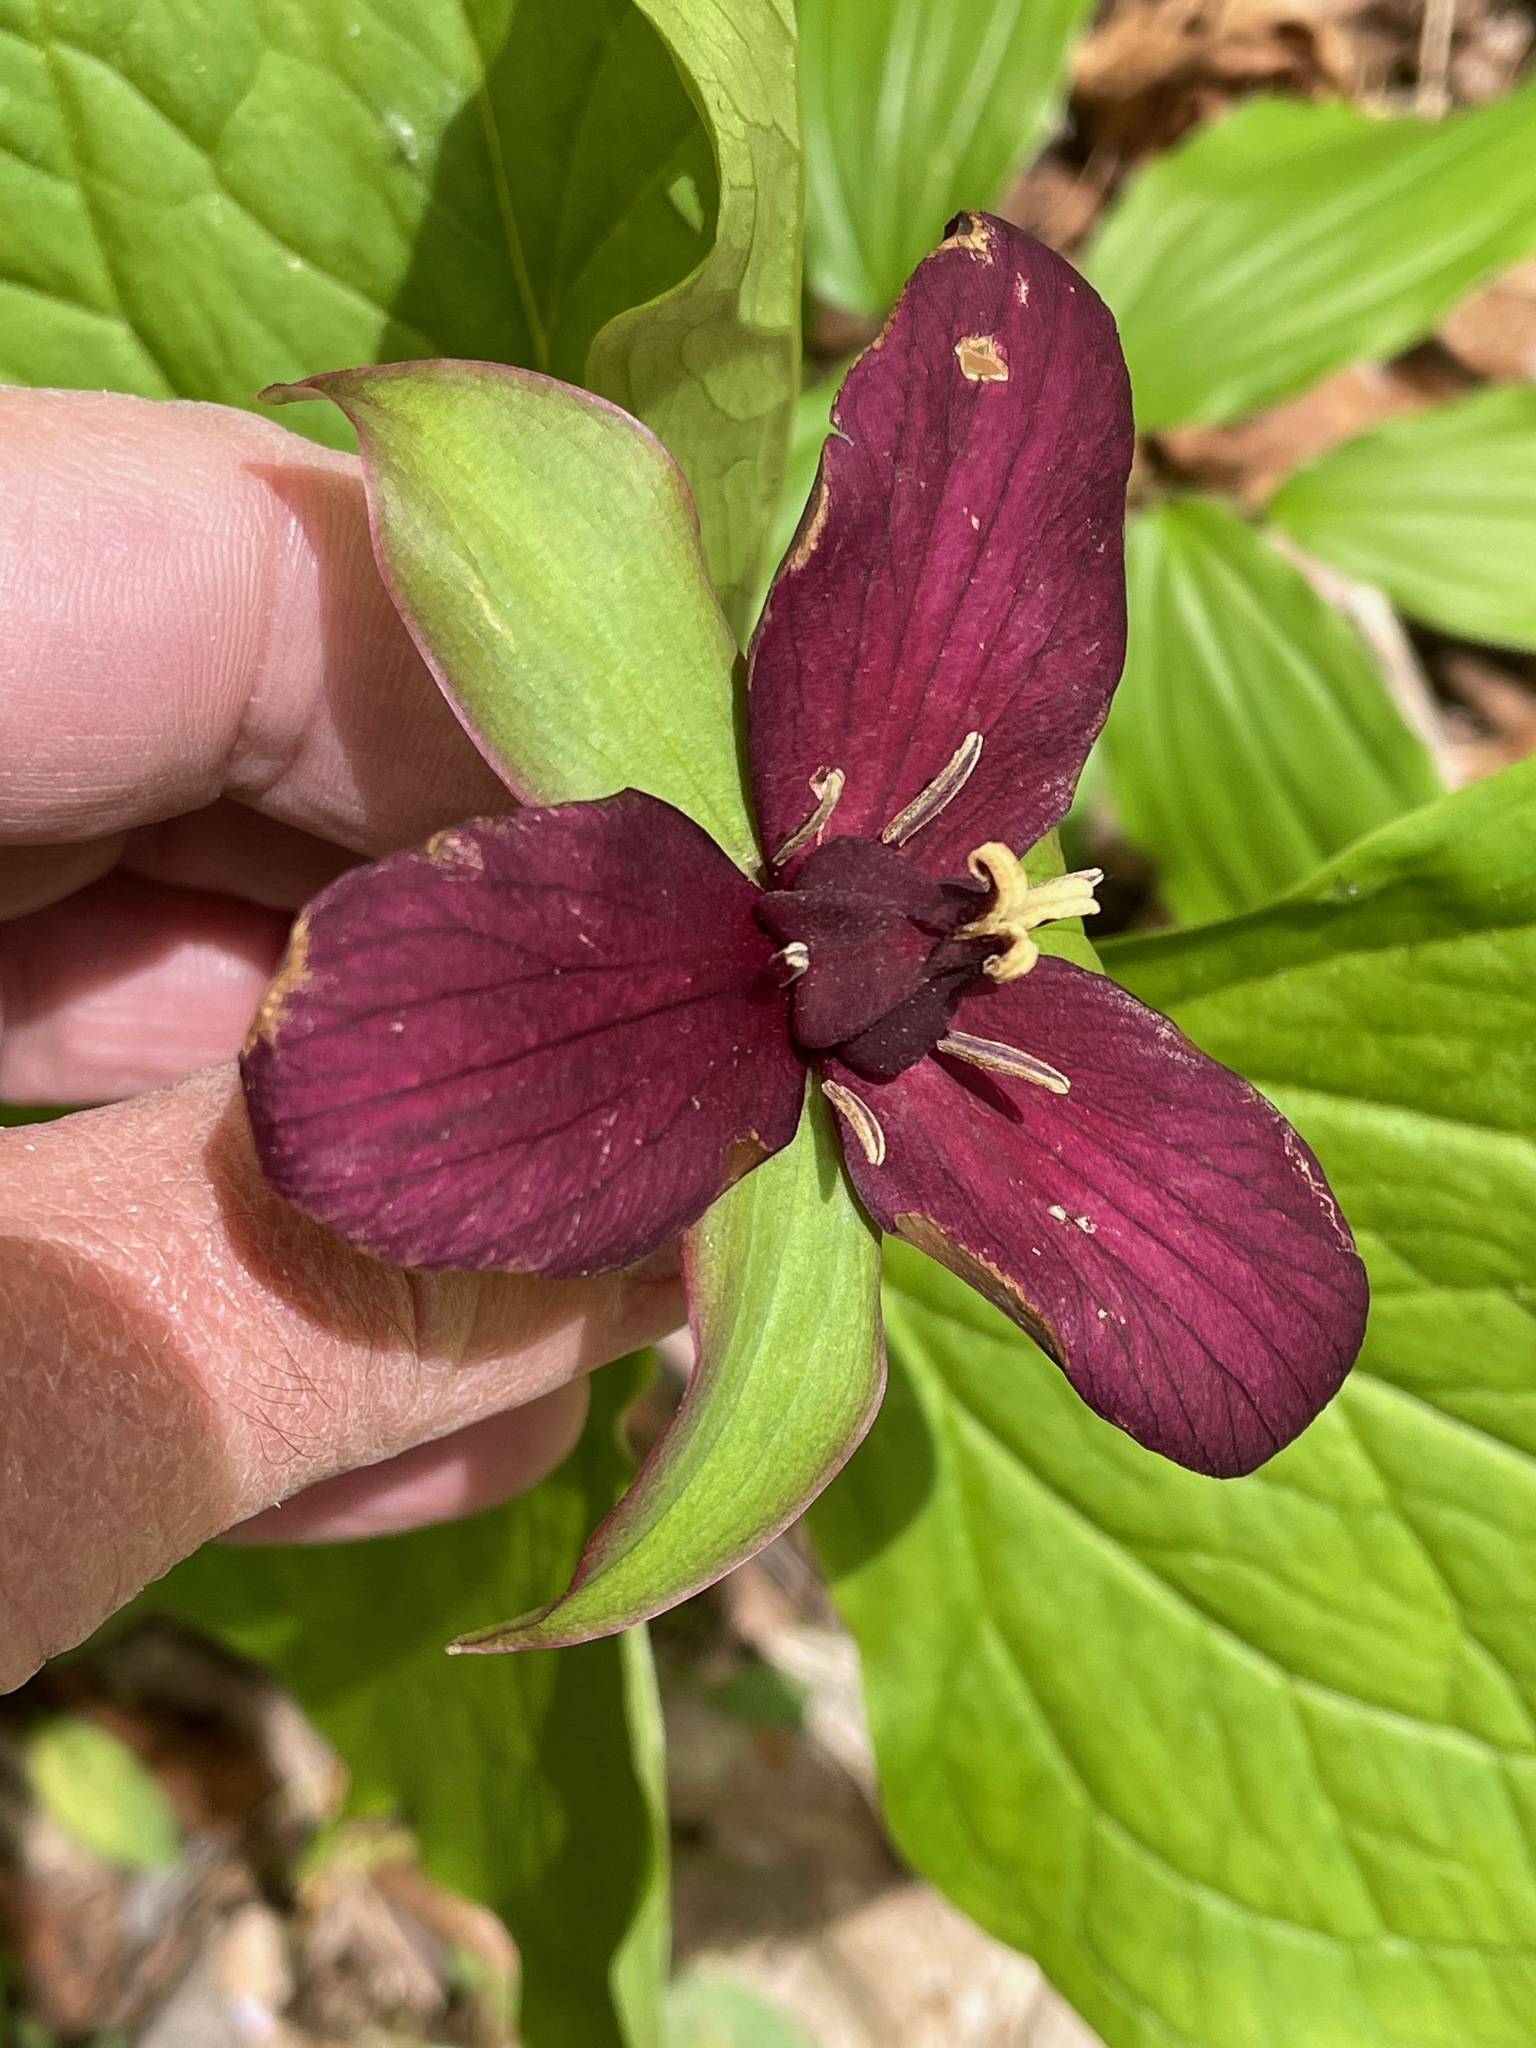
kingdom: Plantae
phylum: Tracheophyta
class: Liliopsida
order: Liliales
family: Melanthiaceae
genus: Trillium
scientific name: Trillium erectum
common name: Purple trillium
